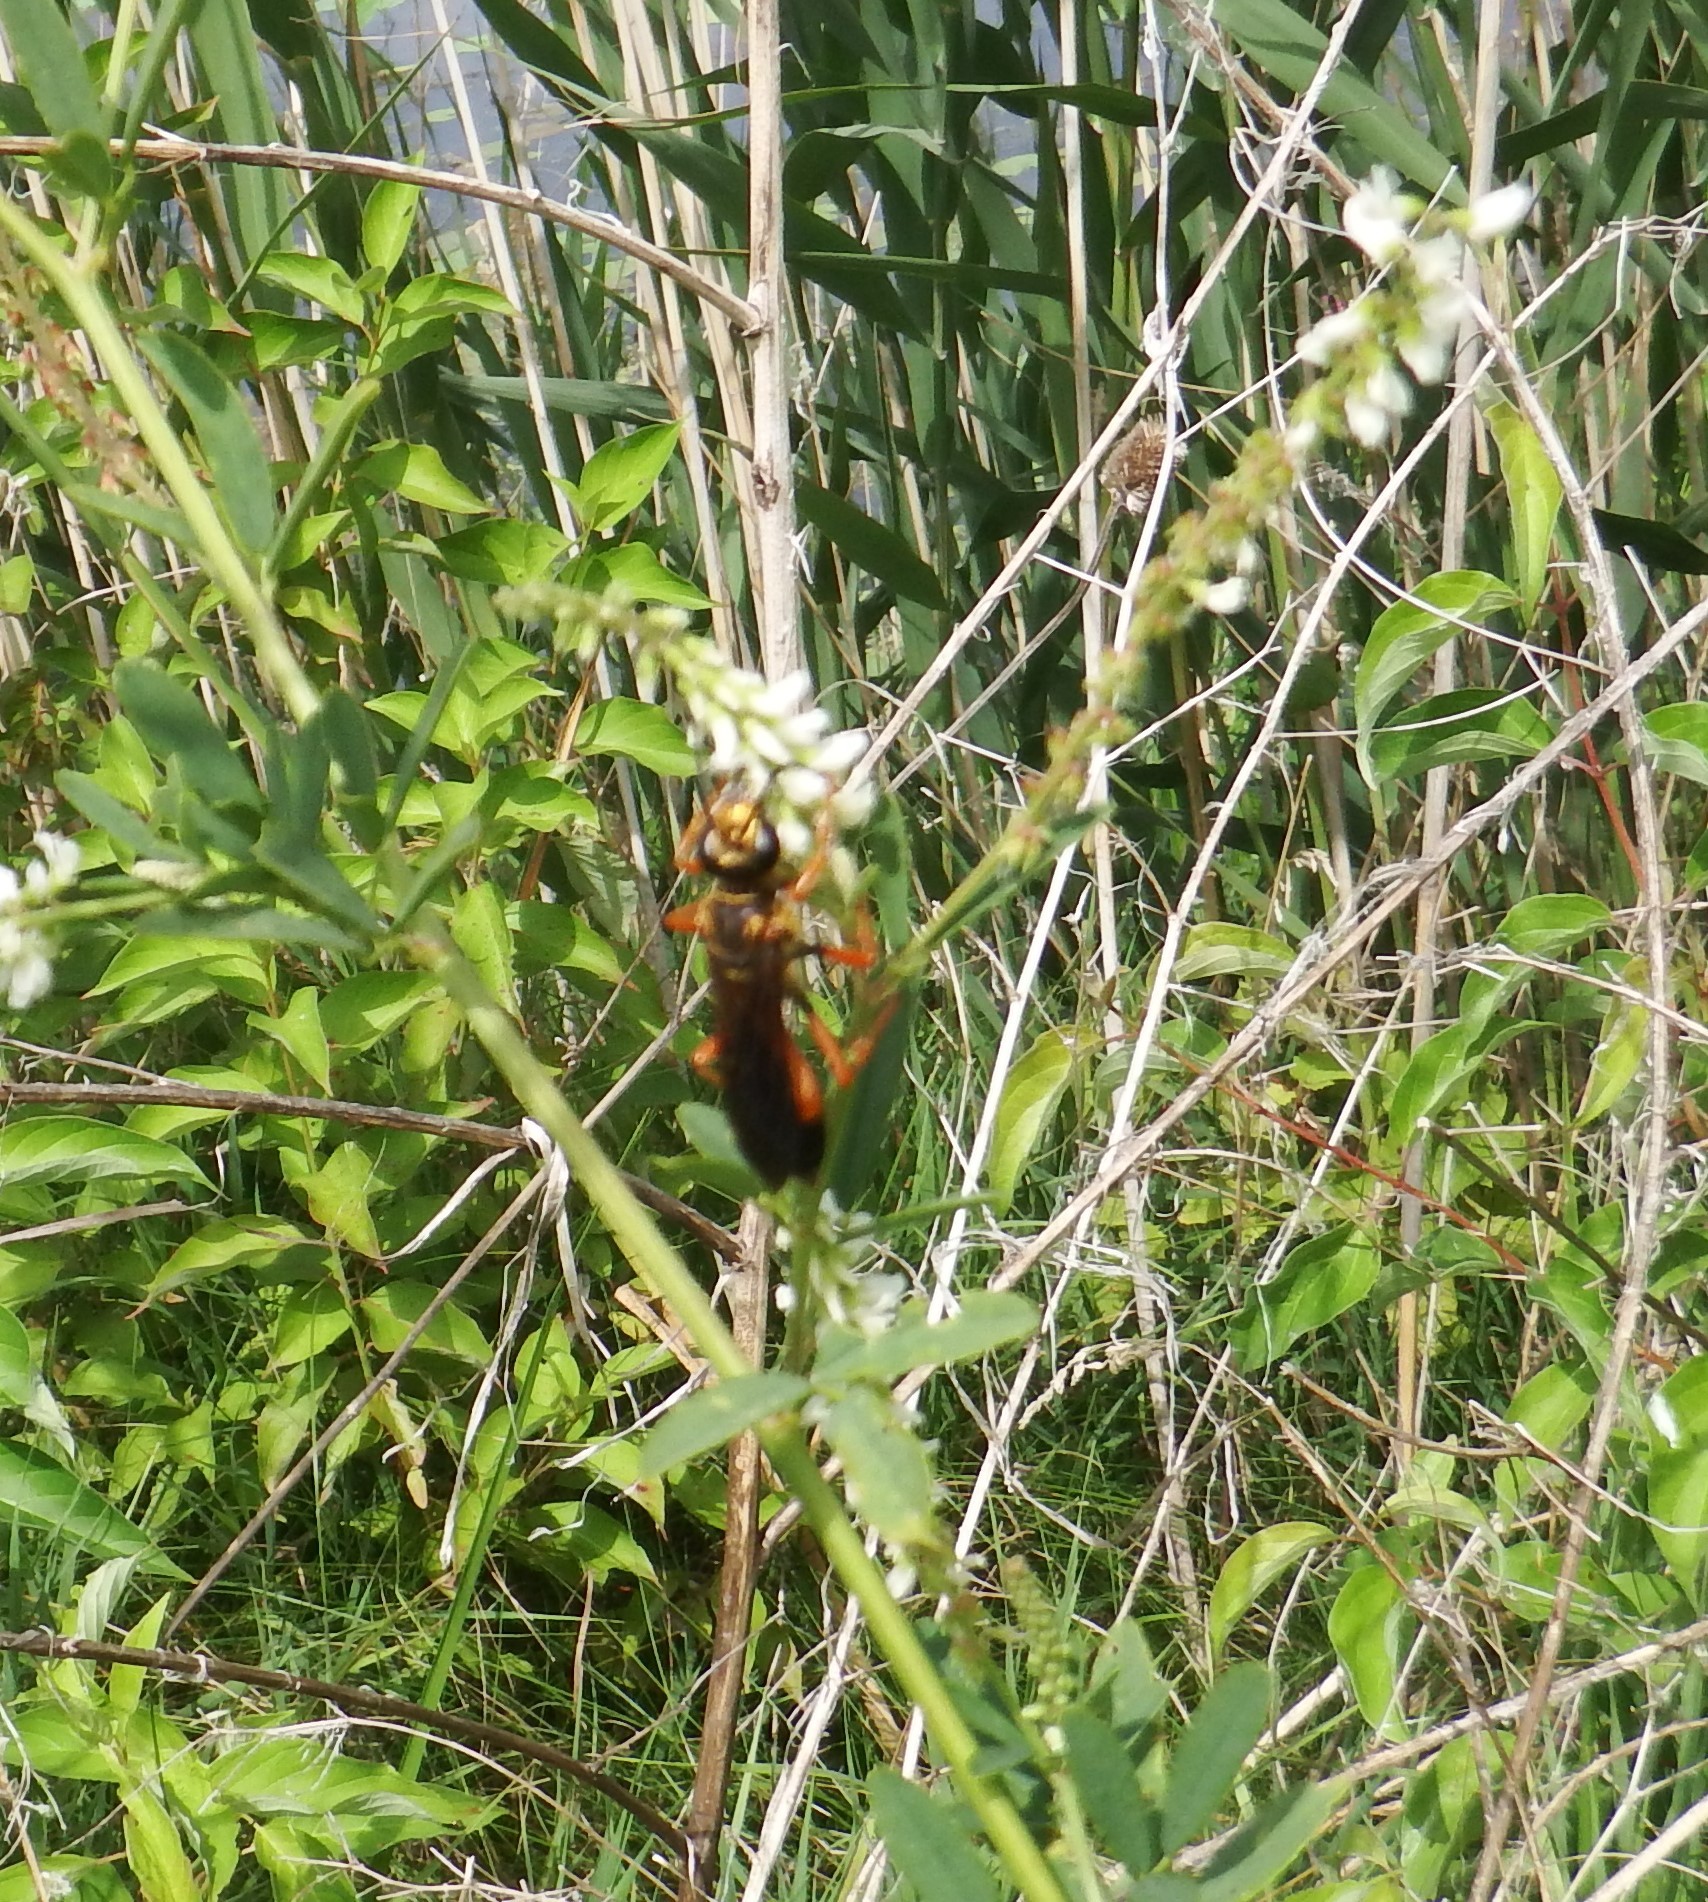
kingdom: Animalia
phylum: Arthropoda
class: Insecta
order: Hymenoptera
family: Sphecidae
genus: Sphex
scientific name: Sphex ichneumoneus
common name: Great golden digger wasp
